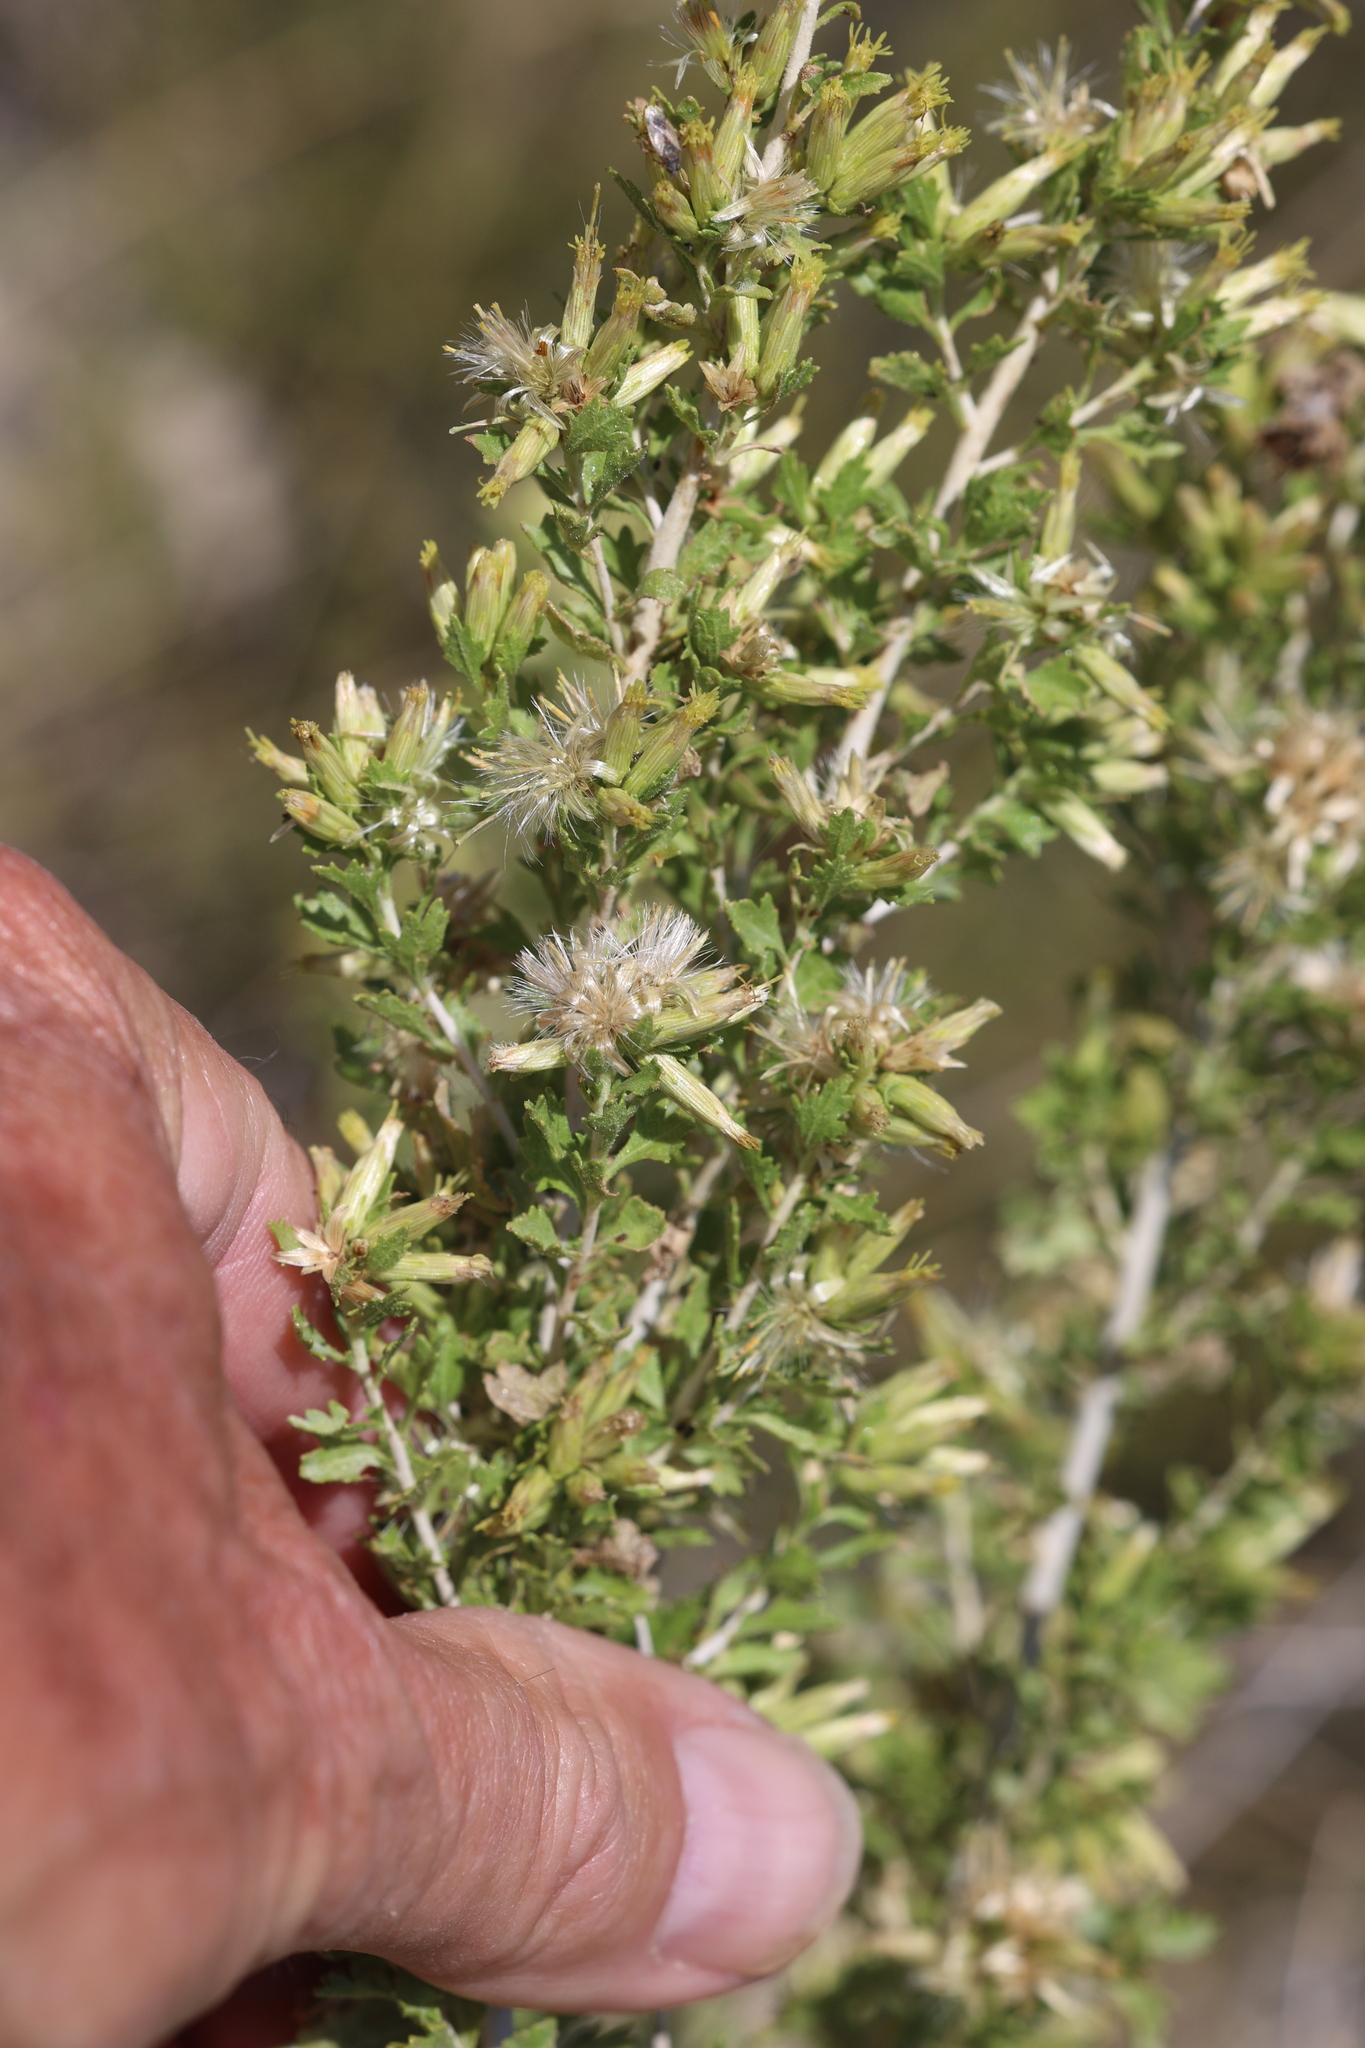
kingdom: Plantae
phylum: Tracheophyta
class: Magnoliopsida
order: Asterales
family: Asteraceae
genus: Brickellia
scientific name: Brickellia laciniata
